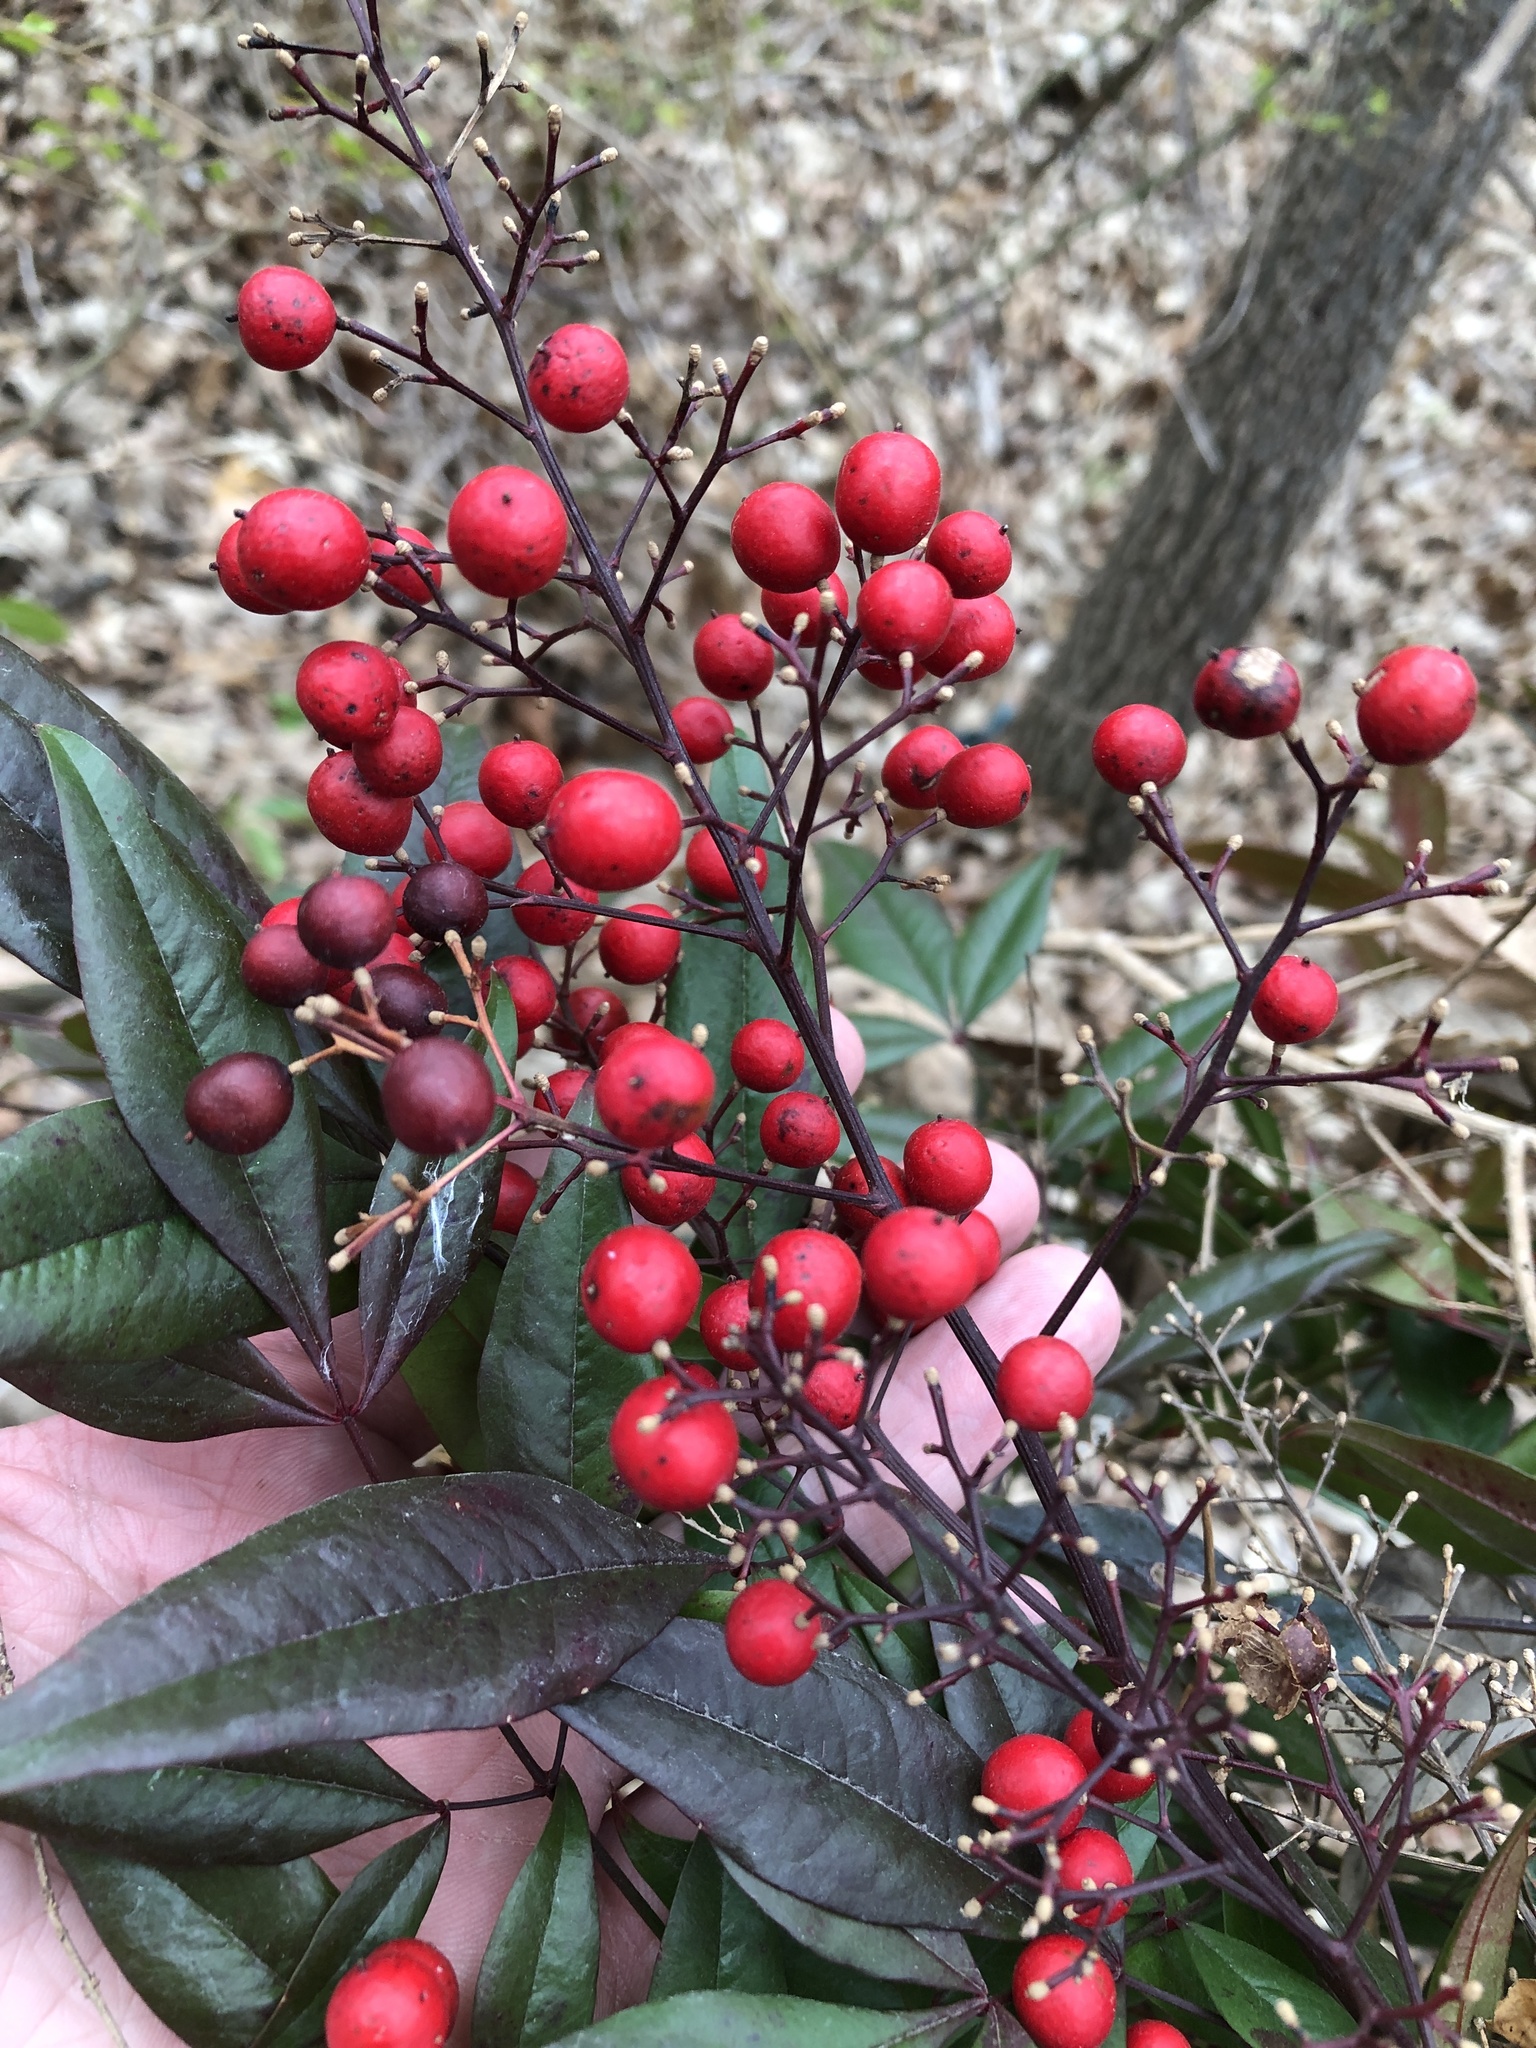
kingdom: Plantae
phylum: Tracheophyta
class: Magnoliopsida
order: Ranunculales
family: Berberidaceae
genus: Nandina
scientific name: Nandina domestica
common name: Sacred bamboo
